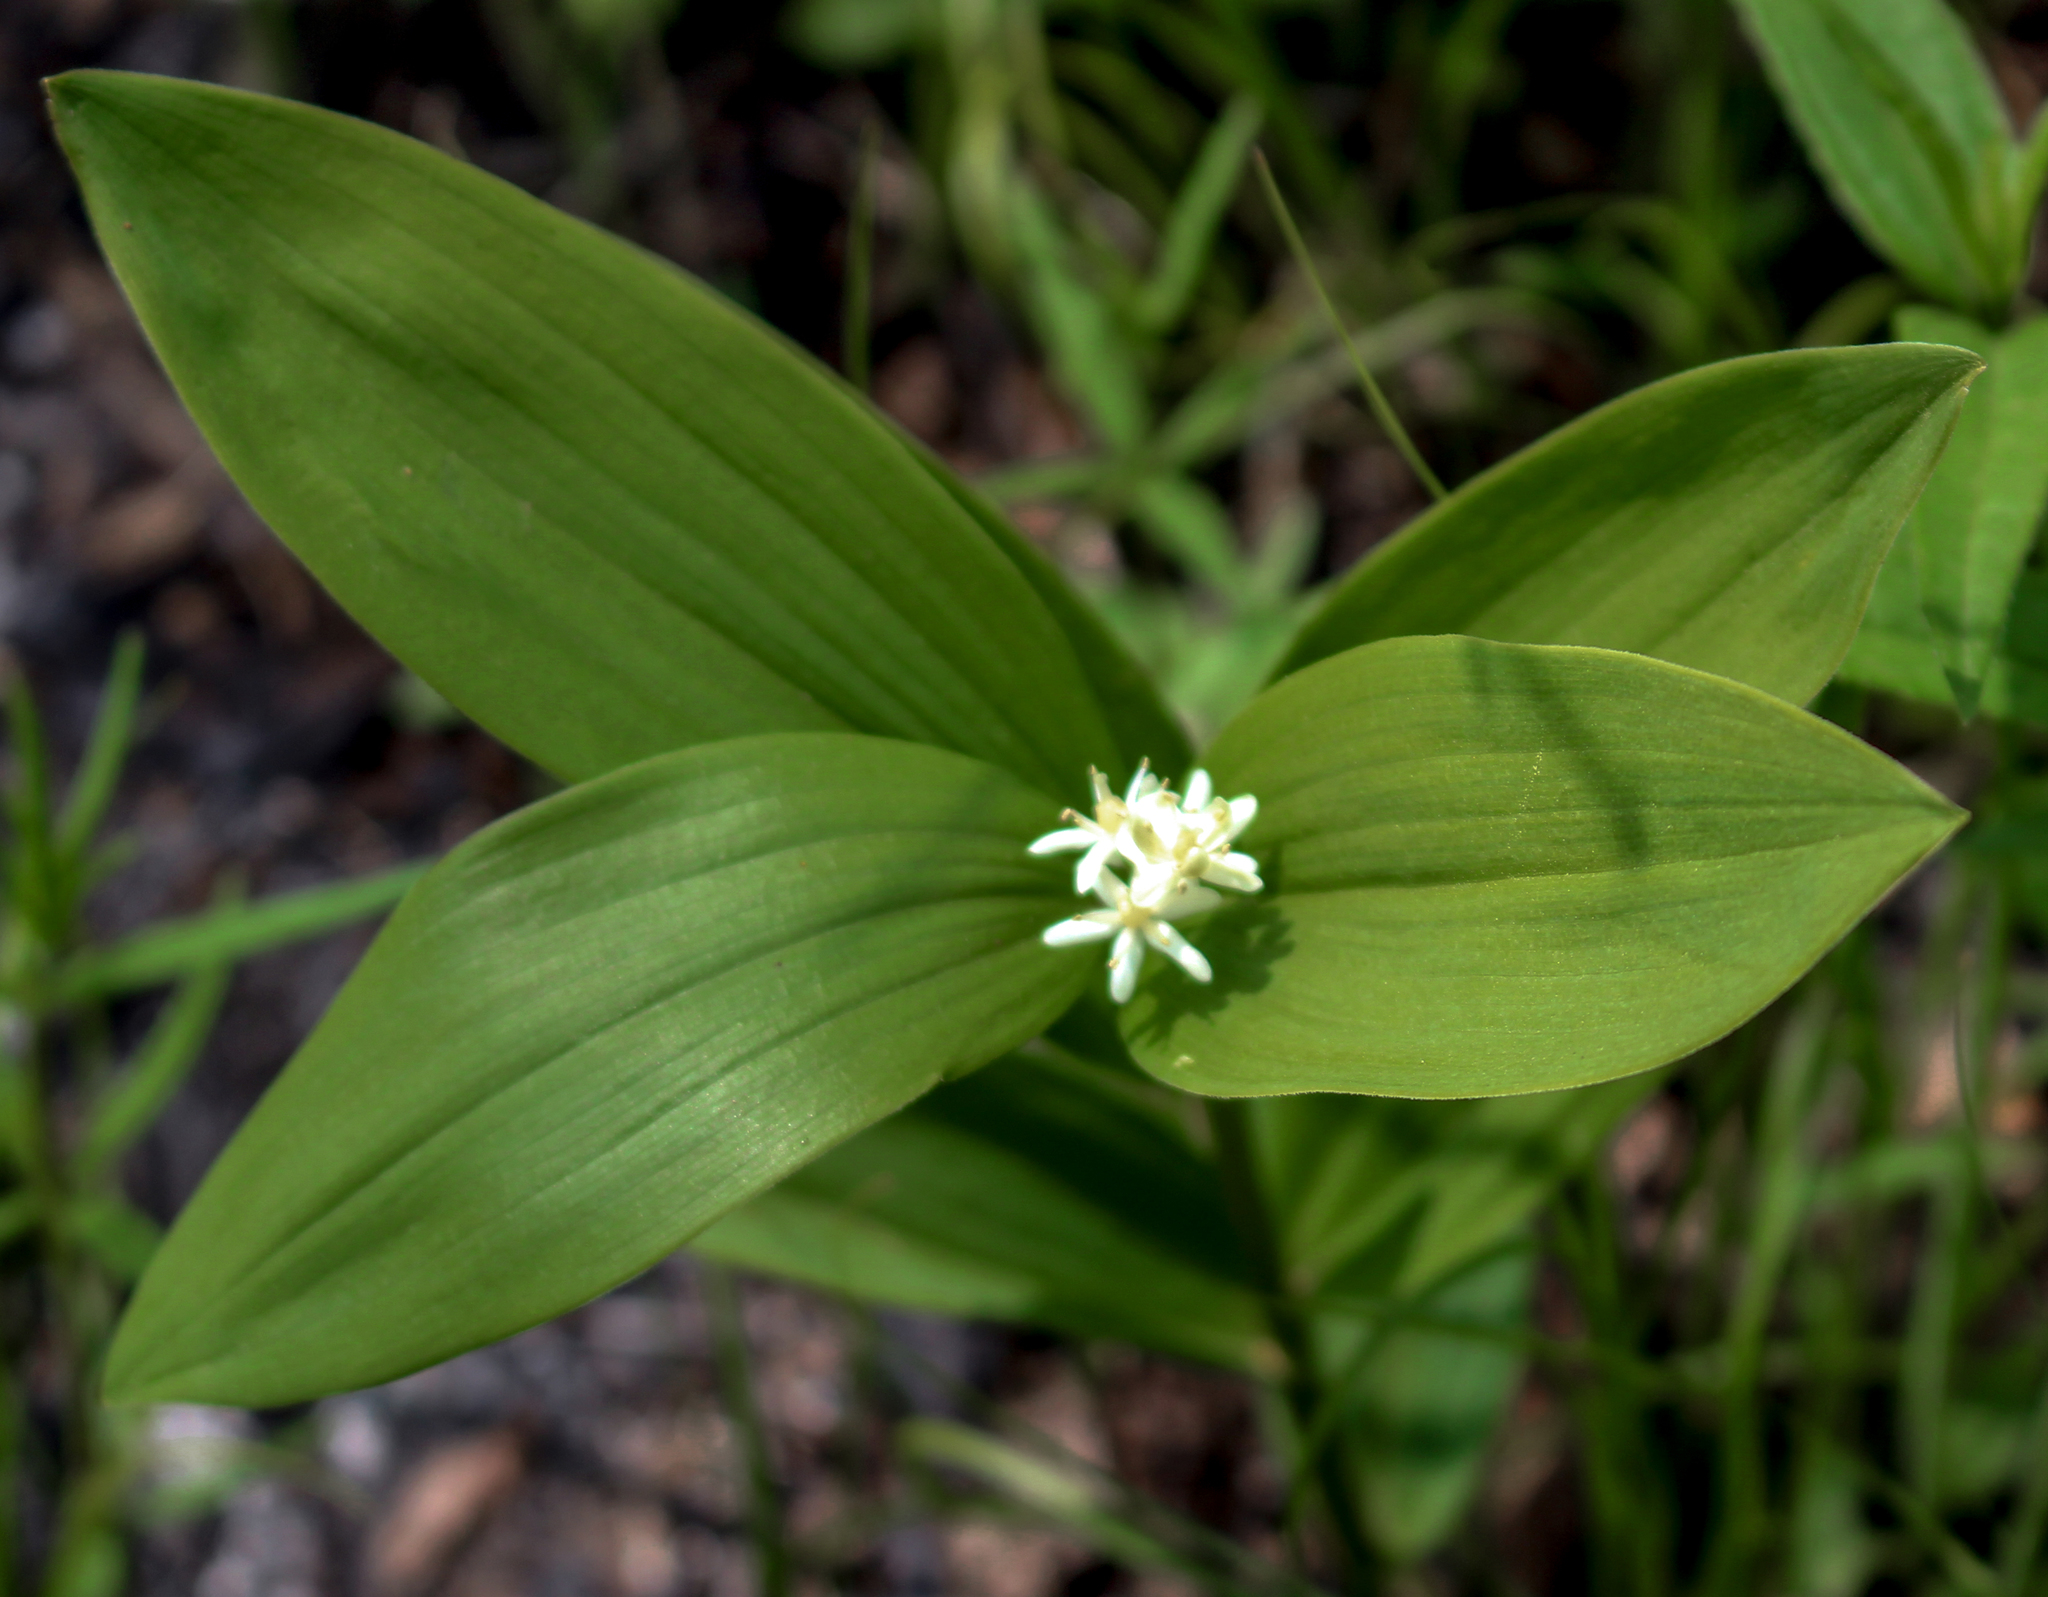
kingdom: Plantae
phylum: Tracheophyta
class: Liliopsida
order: Asparagales
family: Asparagaceae
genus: Maianthemum
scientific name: Maianthemum stellatum
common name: Little false solomon's seal
